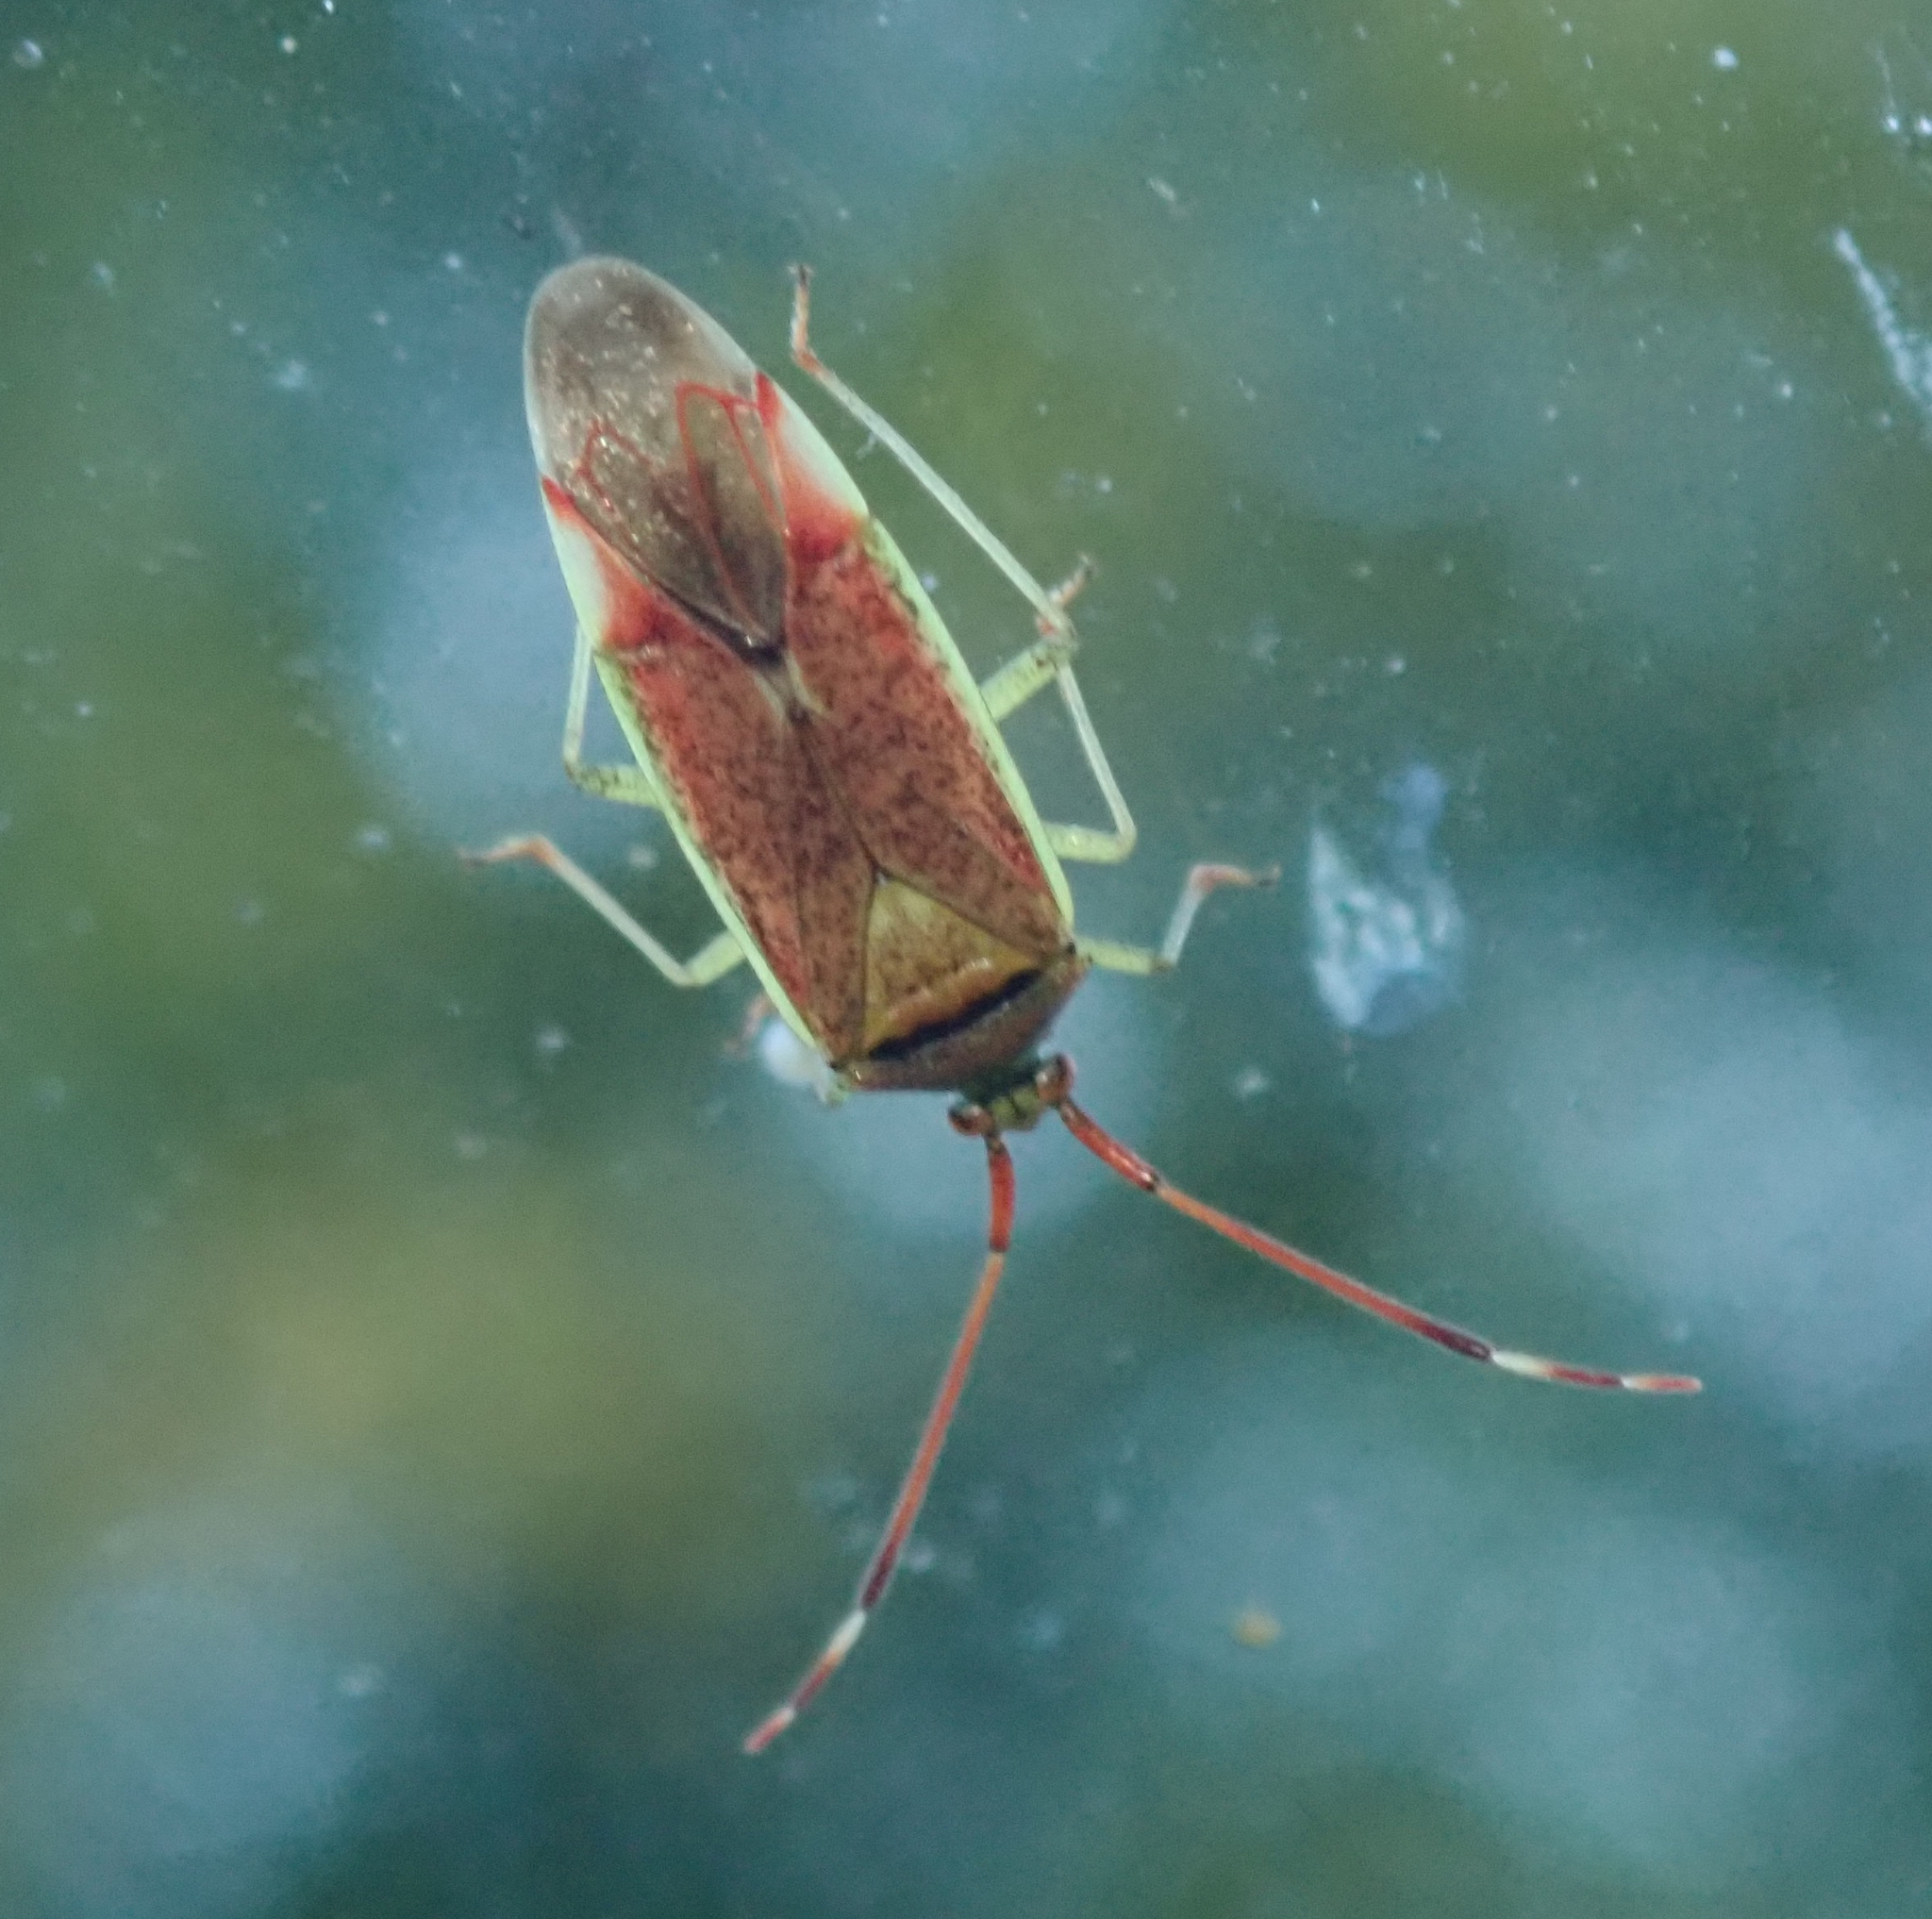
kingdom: Animalia
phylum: Arthropoda
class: Insecta
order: Hemiptera
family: Miridae
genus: Pantilius
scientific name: Pantilius tunicatus
